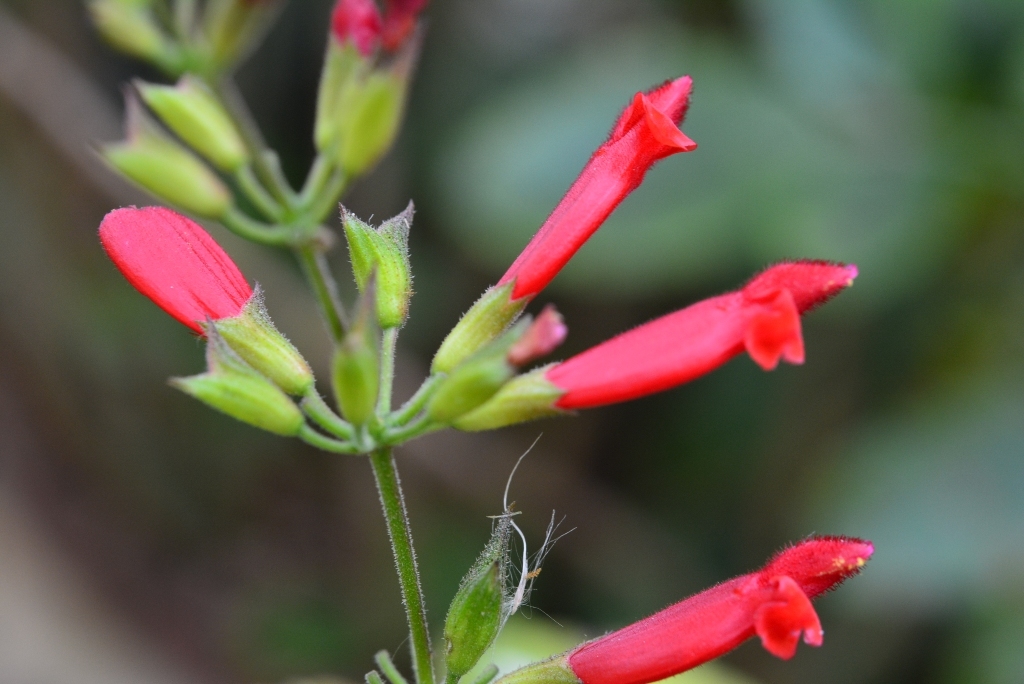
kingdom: Plantae
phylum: Tracheophyta
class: Magnoliopsida
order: Lamiales
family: Lamiaceae
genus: Salvia
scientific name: Salvia holwayi
